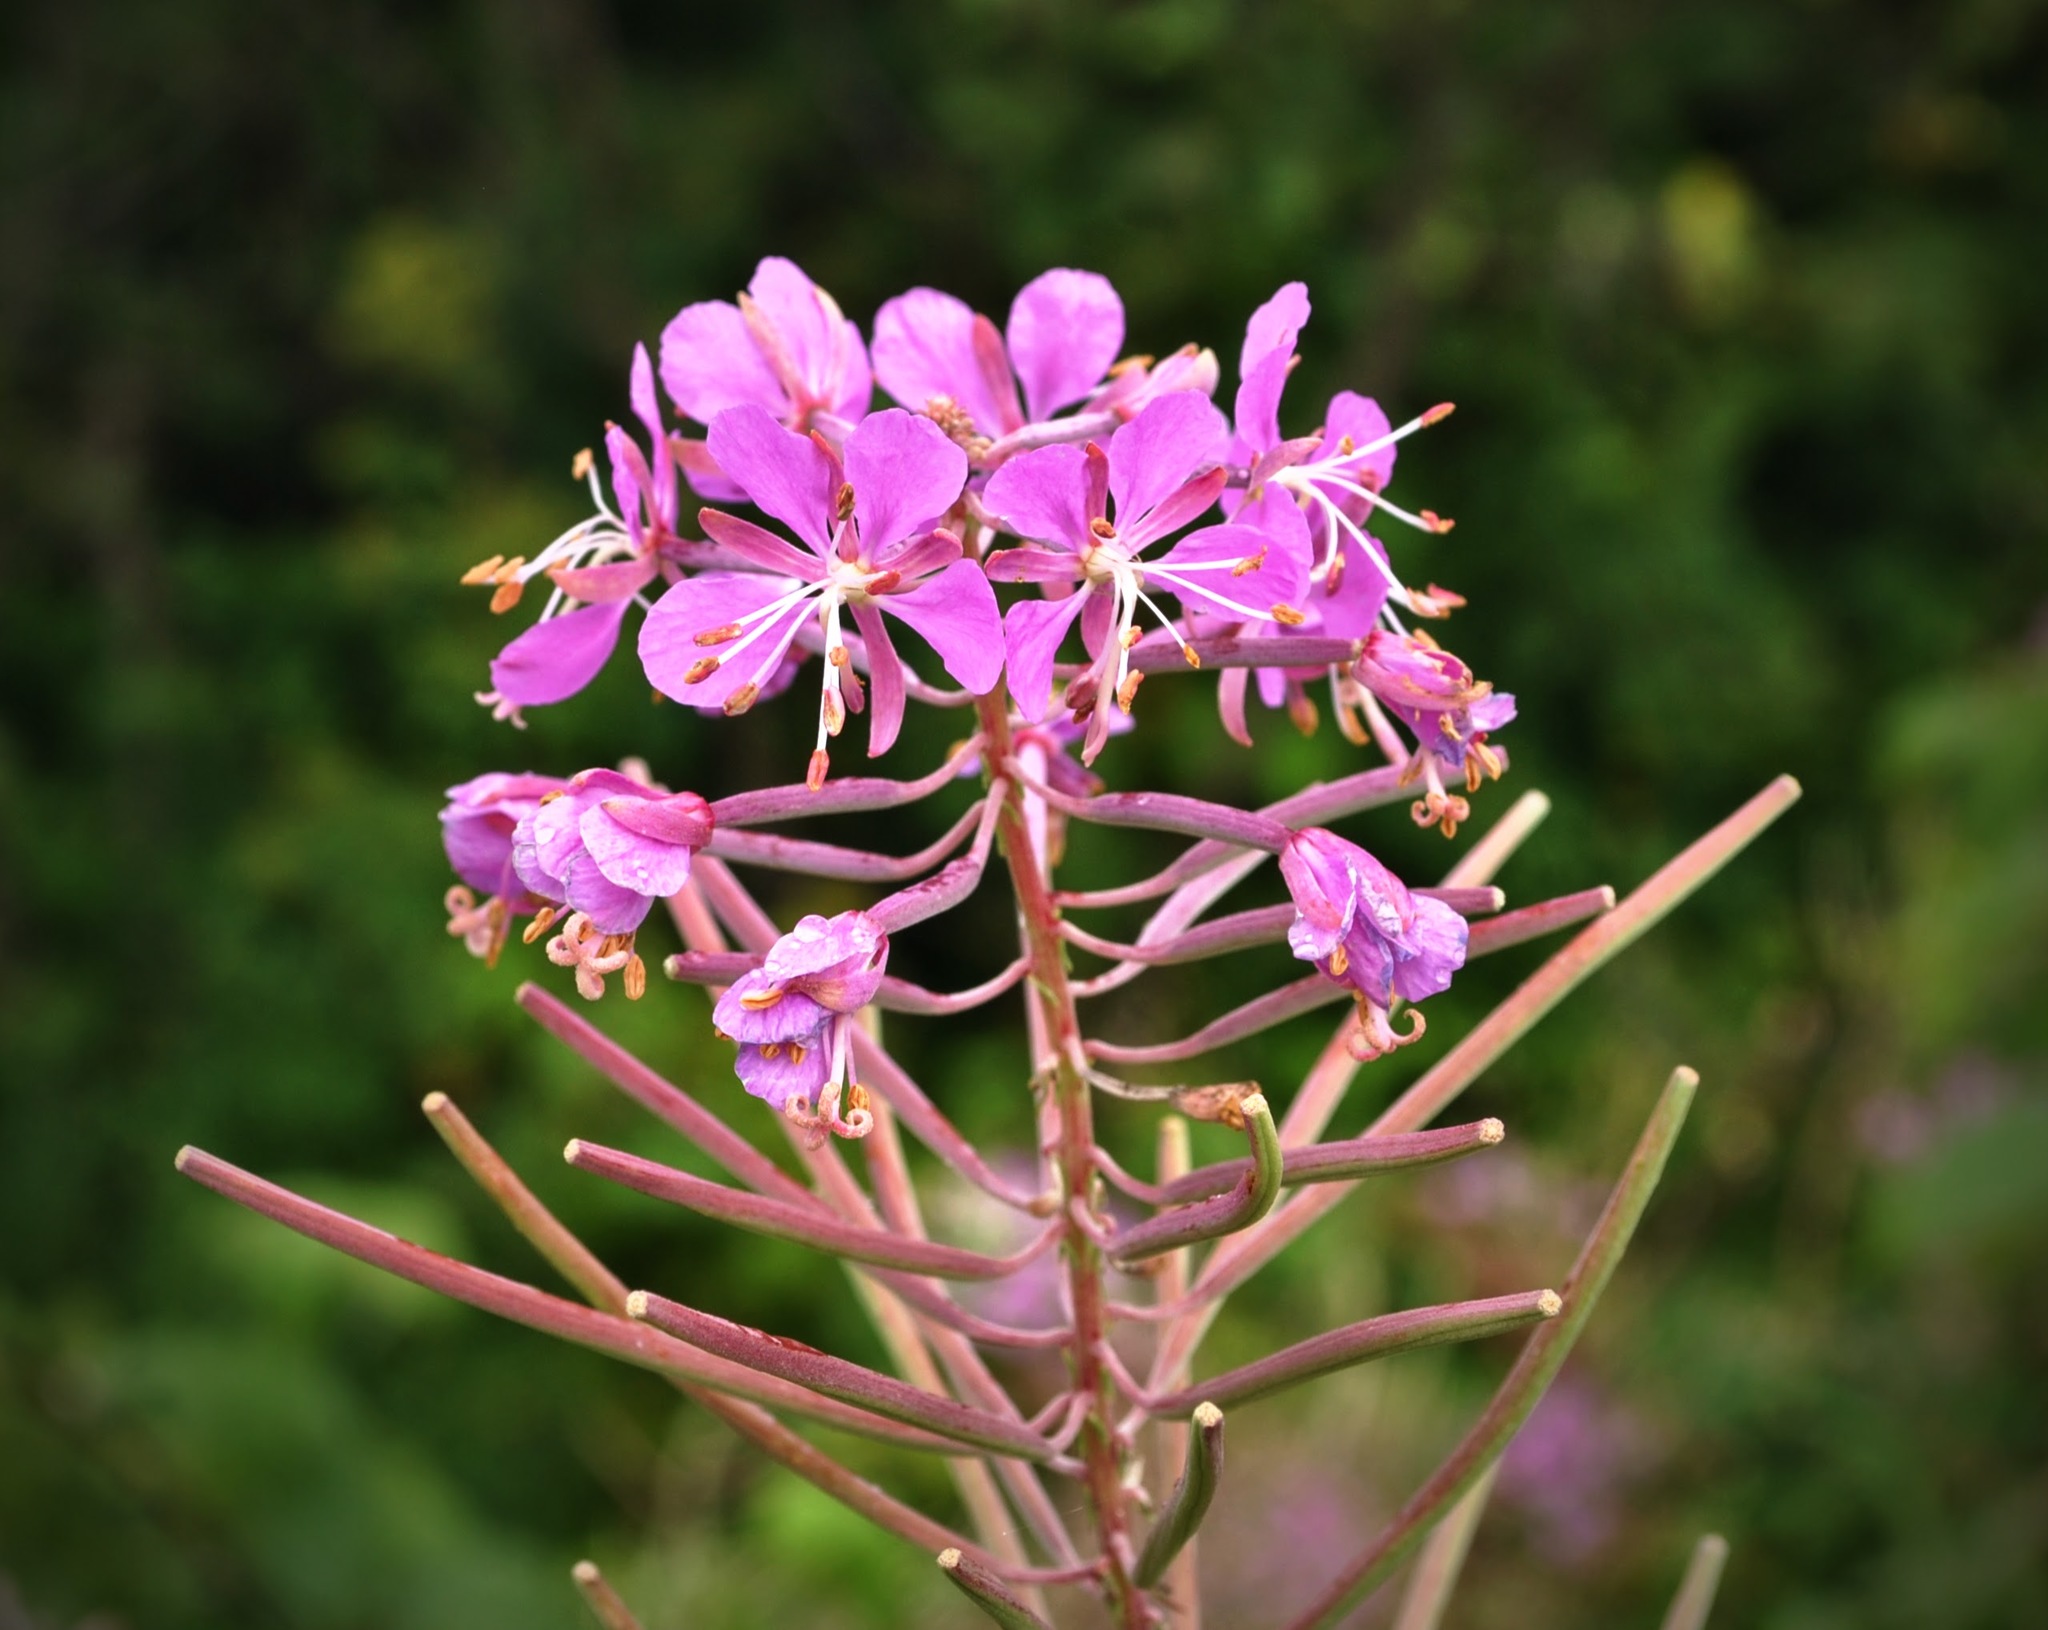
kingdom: Plantae
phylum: Tracheophyta
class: Magnoliopsida
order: Myrtales
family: Onagraceae
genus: Chamaenerion
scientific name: Chamaenerion angustifolium
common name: Fireweed
